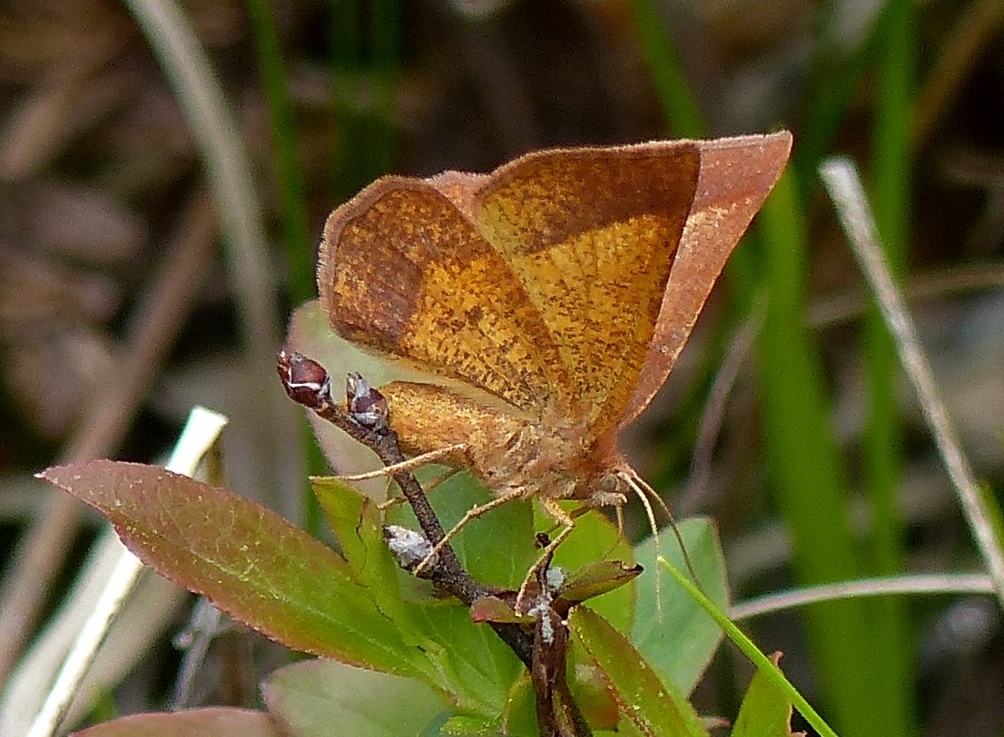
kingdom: Animalia
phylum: Arthropoda
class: Insecta
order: Lepidoptera
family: Geometridae
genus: Metarranthis
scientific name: Metarranthis obfirmaria
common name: Yellow-washed metarranthis
